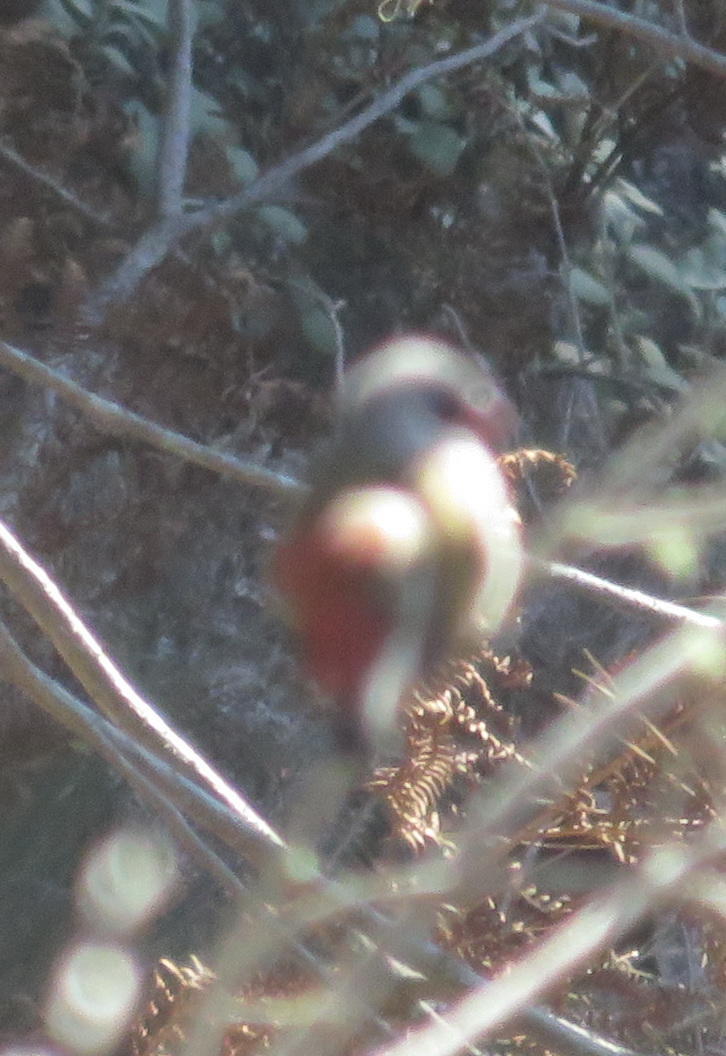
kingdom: Animalia
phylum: Chordata
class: Aves
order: Passeriformes
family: Estrildidae
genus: Coccopygia
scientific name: Coccopygia melanotis
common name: Swee waxbill
